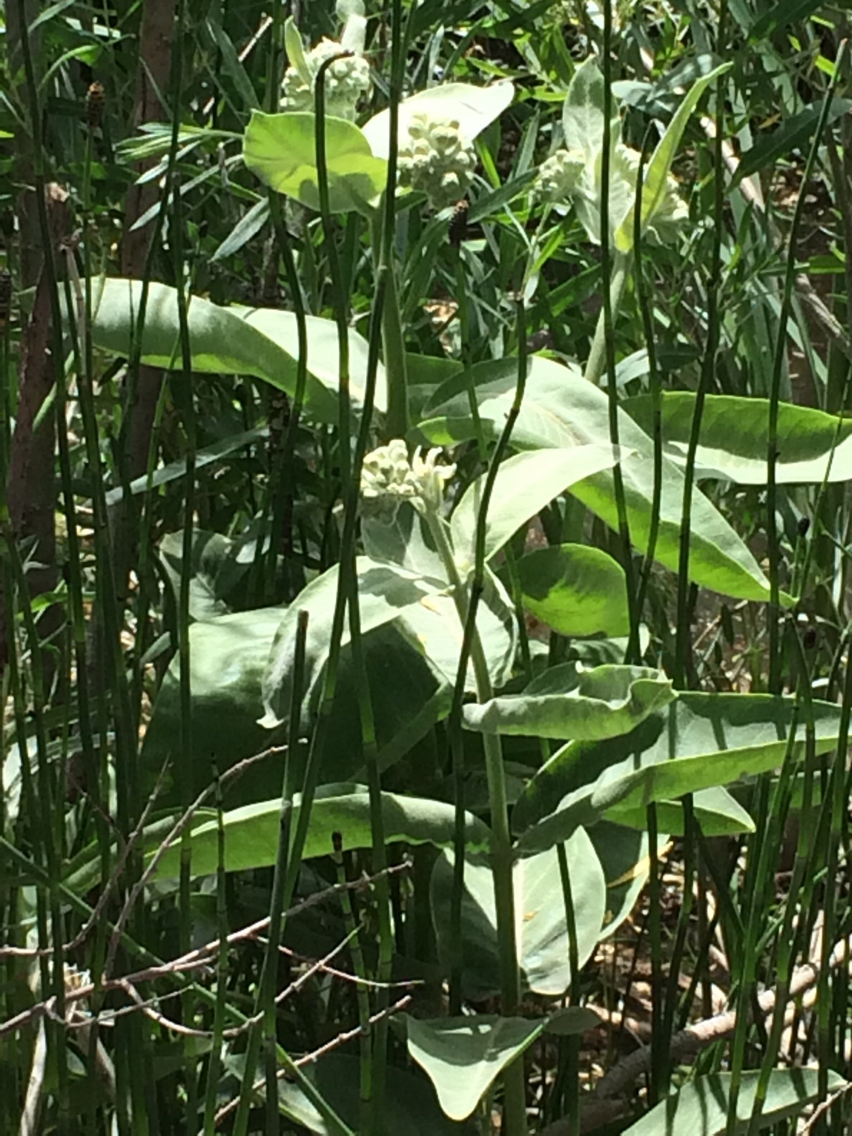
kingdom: Plantae
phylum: Tracheophyta
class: Magnoliopsida
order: Gentianales
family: Apocynaceae
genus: Asclepias
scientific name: Asclepias speciosa
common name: Showy milkweed
